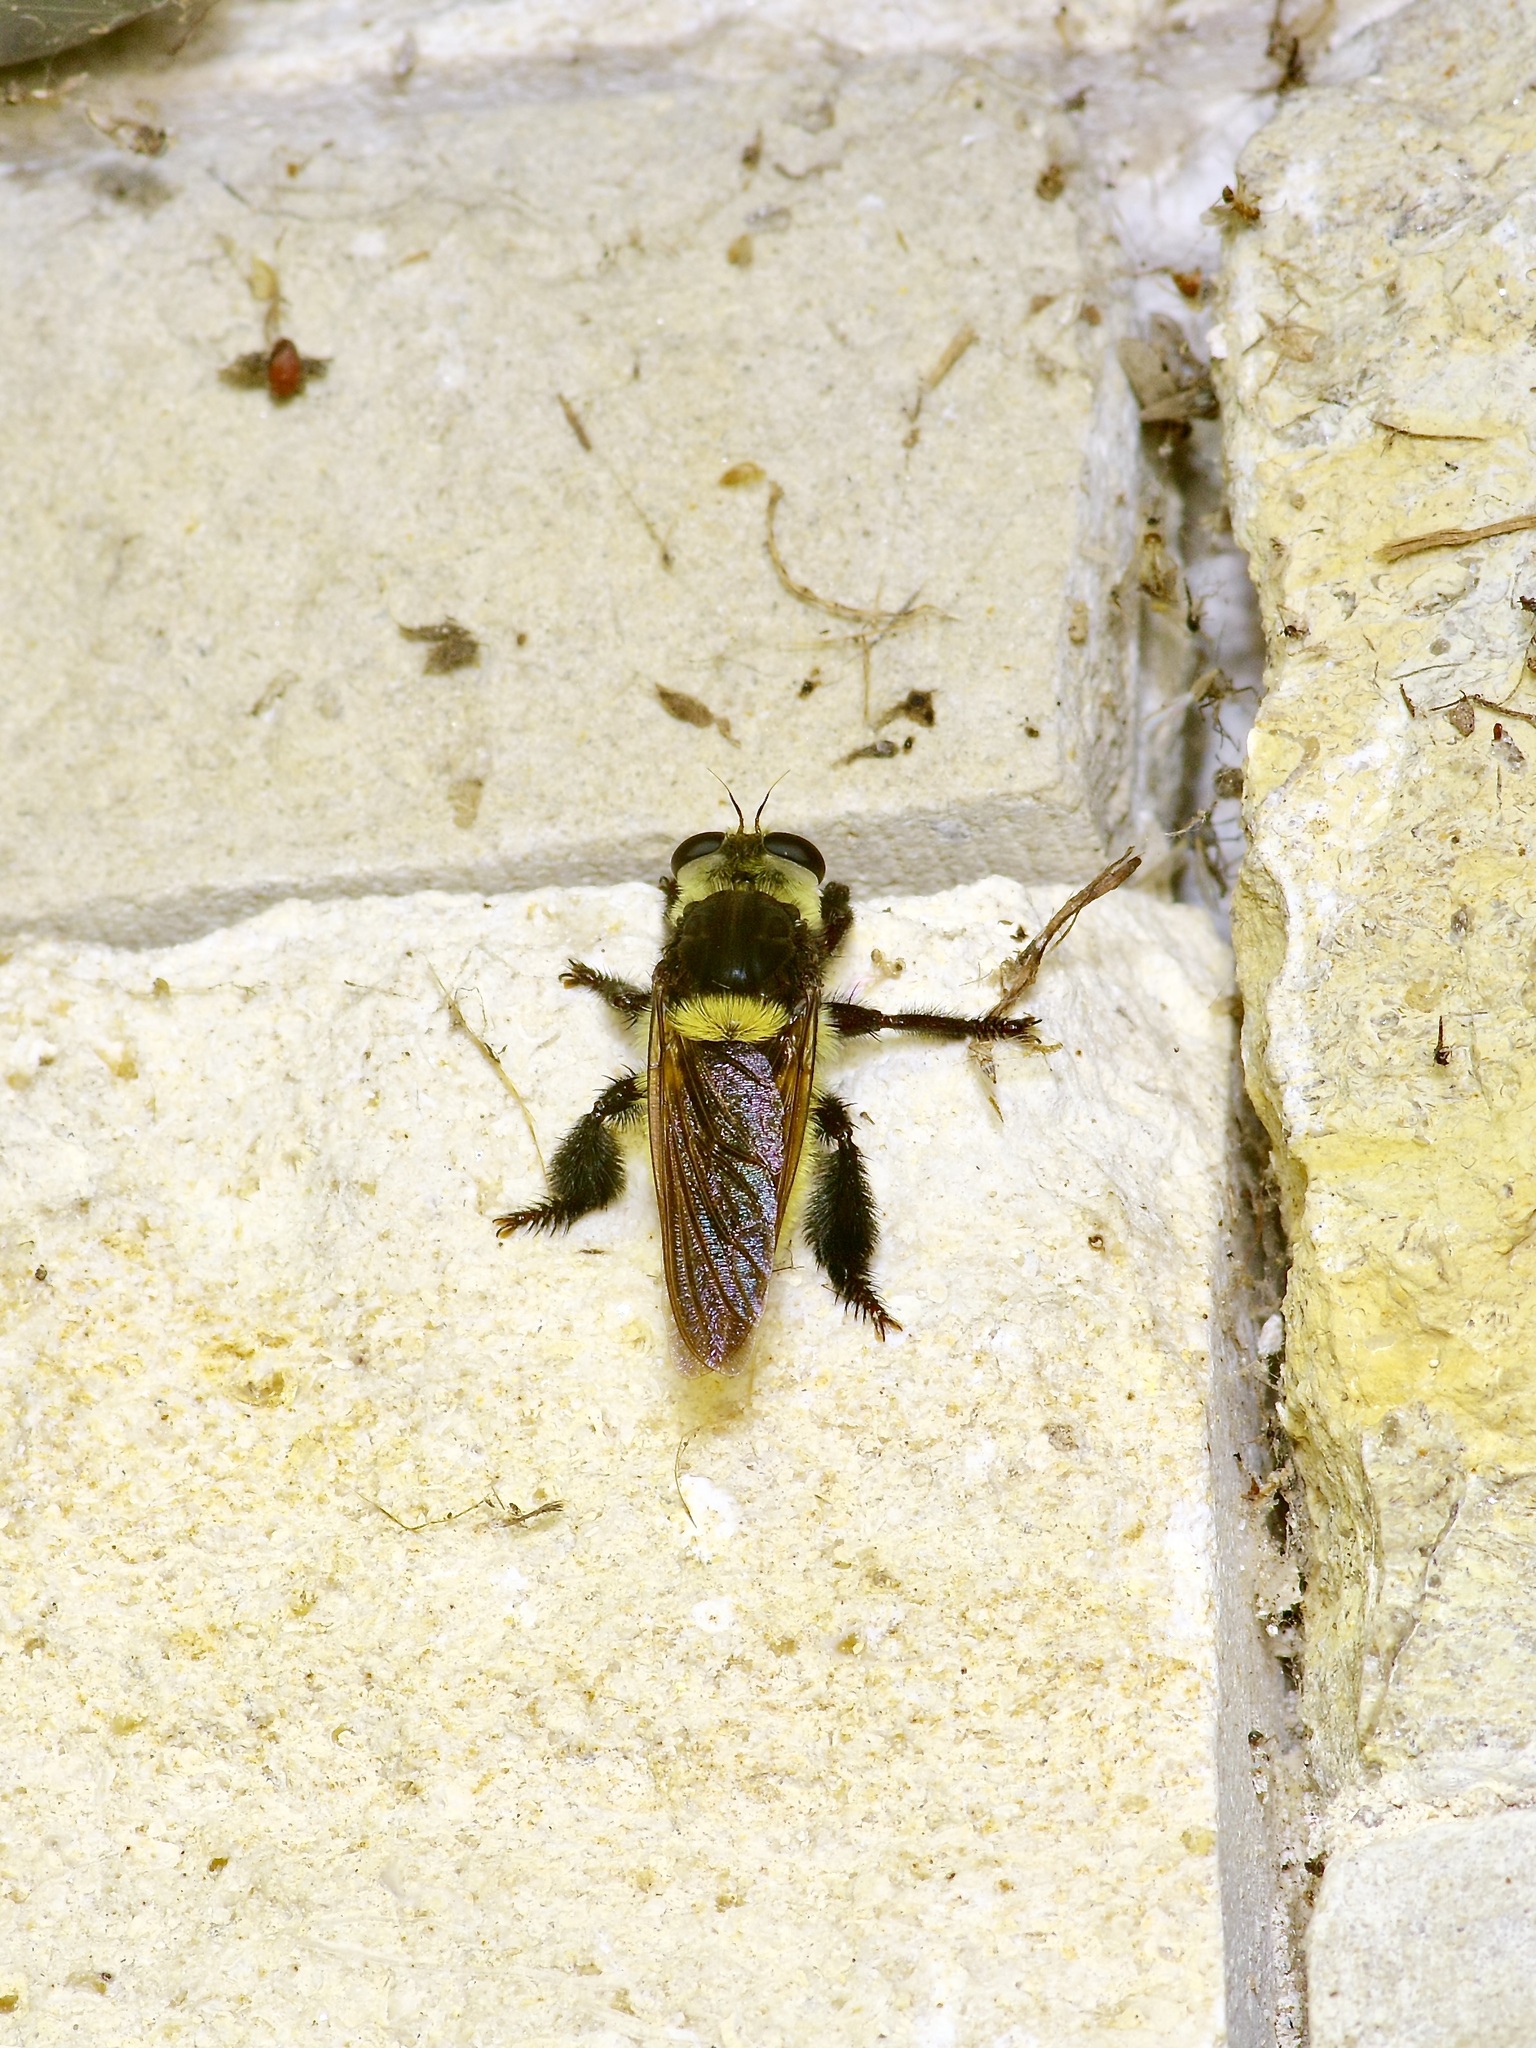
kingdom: Animalia
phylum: Arthropoda
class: Insecta
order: Diptera
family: Asilidae
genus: Mallophora
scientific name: Mallophora fautrix
